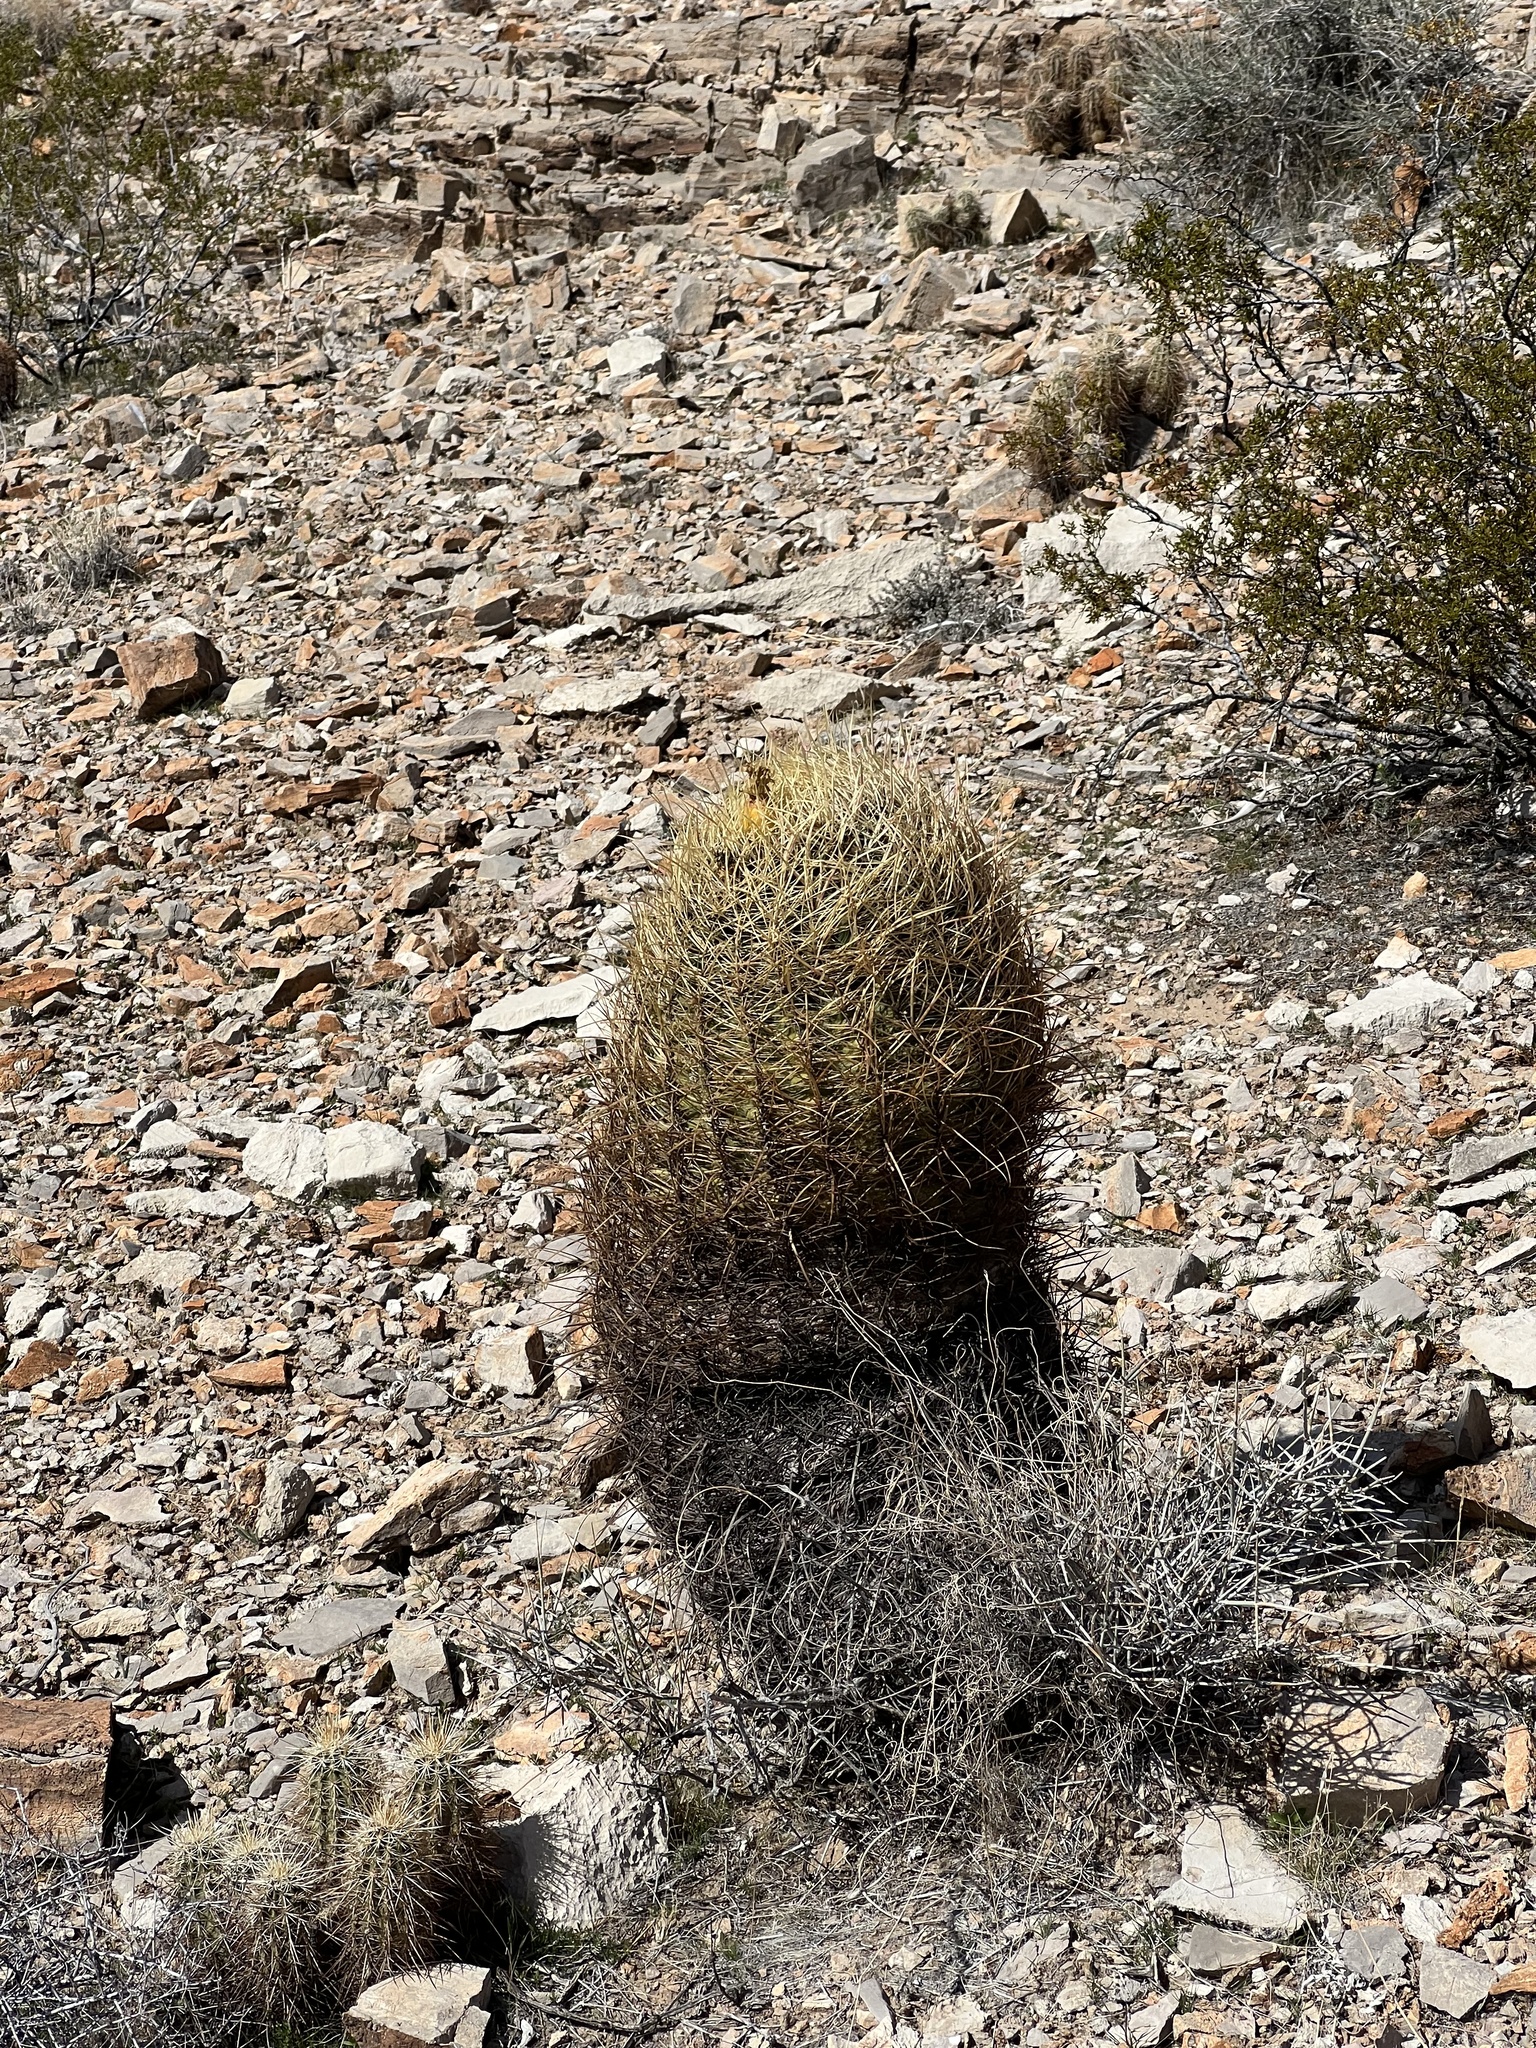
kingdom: Plantae
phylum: Tracheophyta
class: Magnoliopsida
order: Caryophyllales
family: Cactaceae
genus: Ferocactus
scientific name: Ferocactus cylindraceus
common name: California barrel cactus
